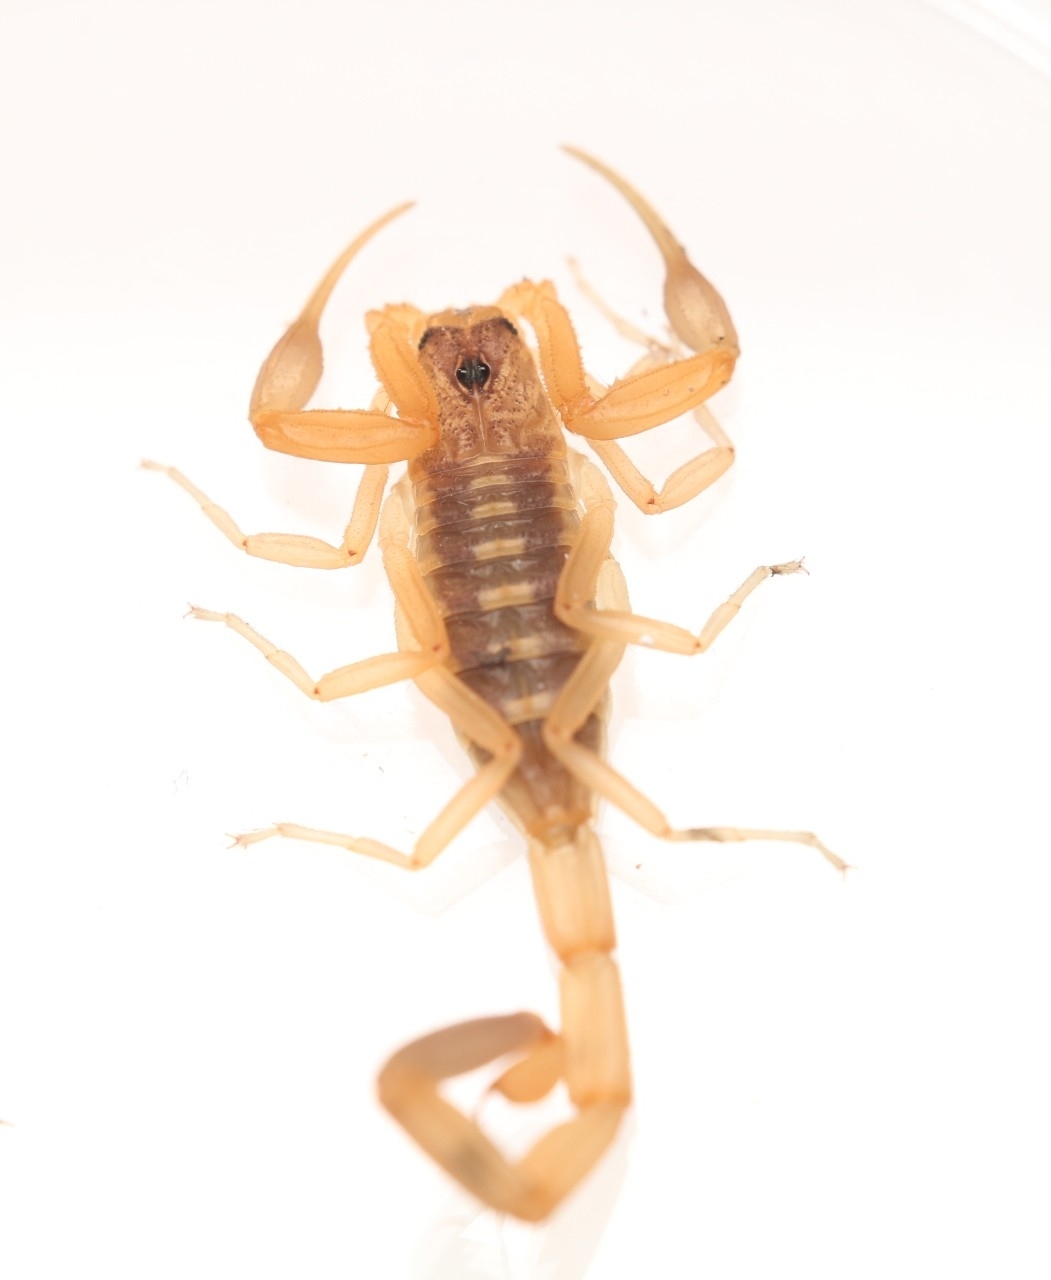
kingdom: Animalia
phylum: Arthropoda
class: Arachnida
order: Scorpiones
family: Buthidae
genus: Centruroides
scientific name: Centruroides vittatus
